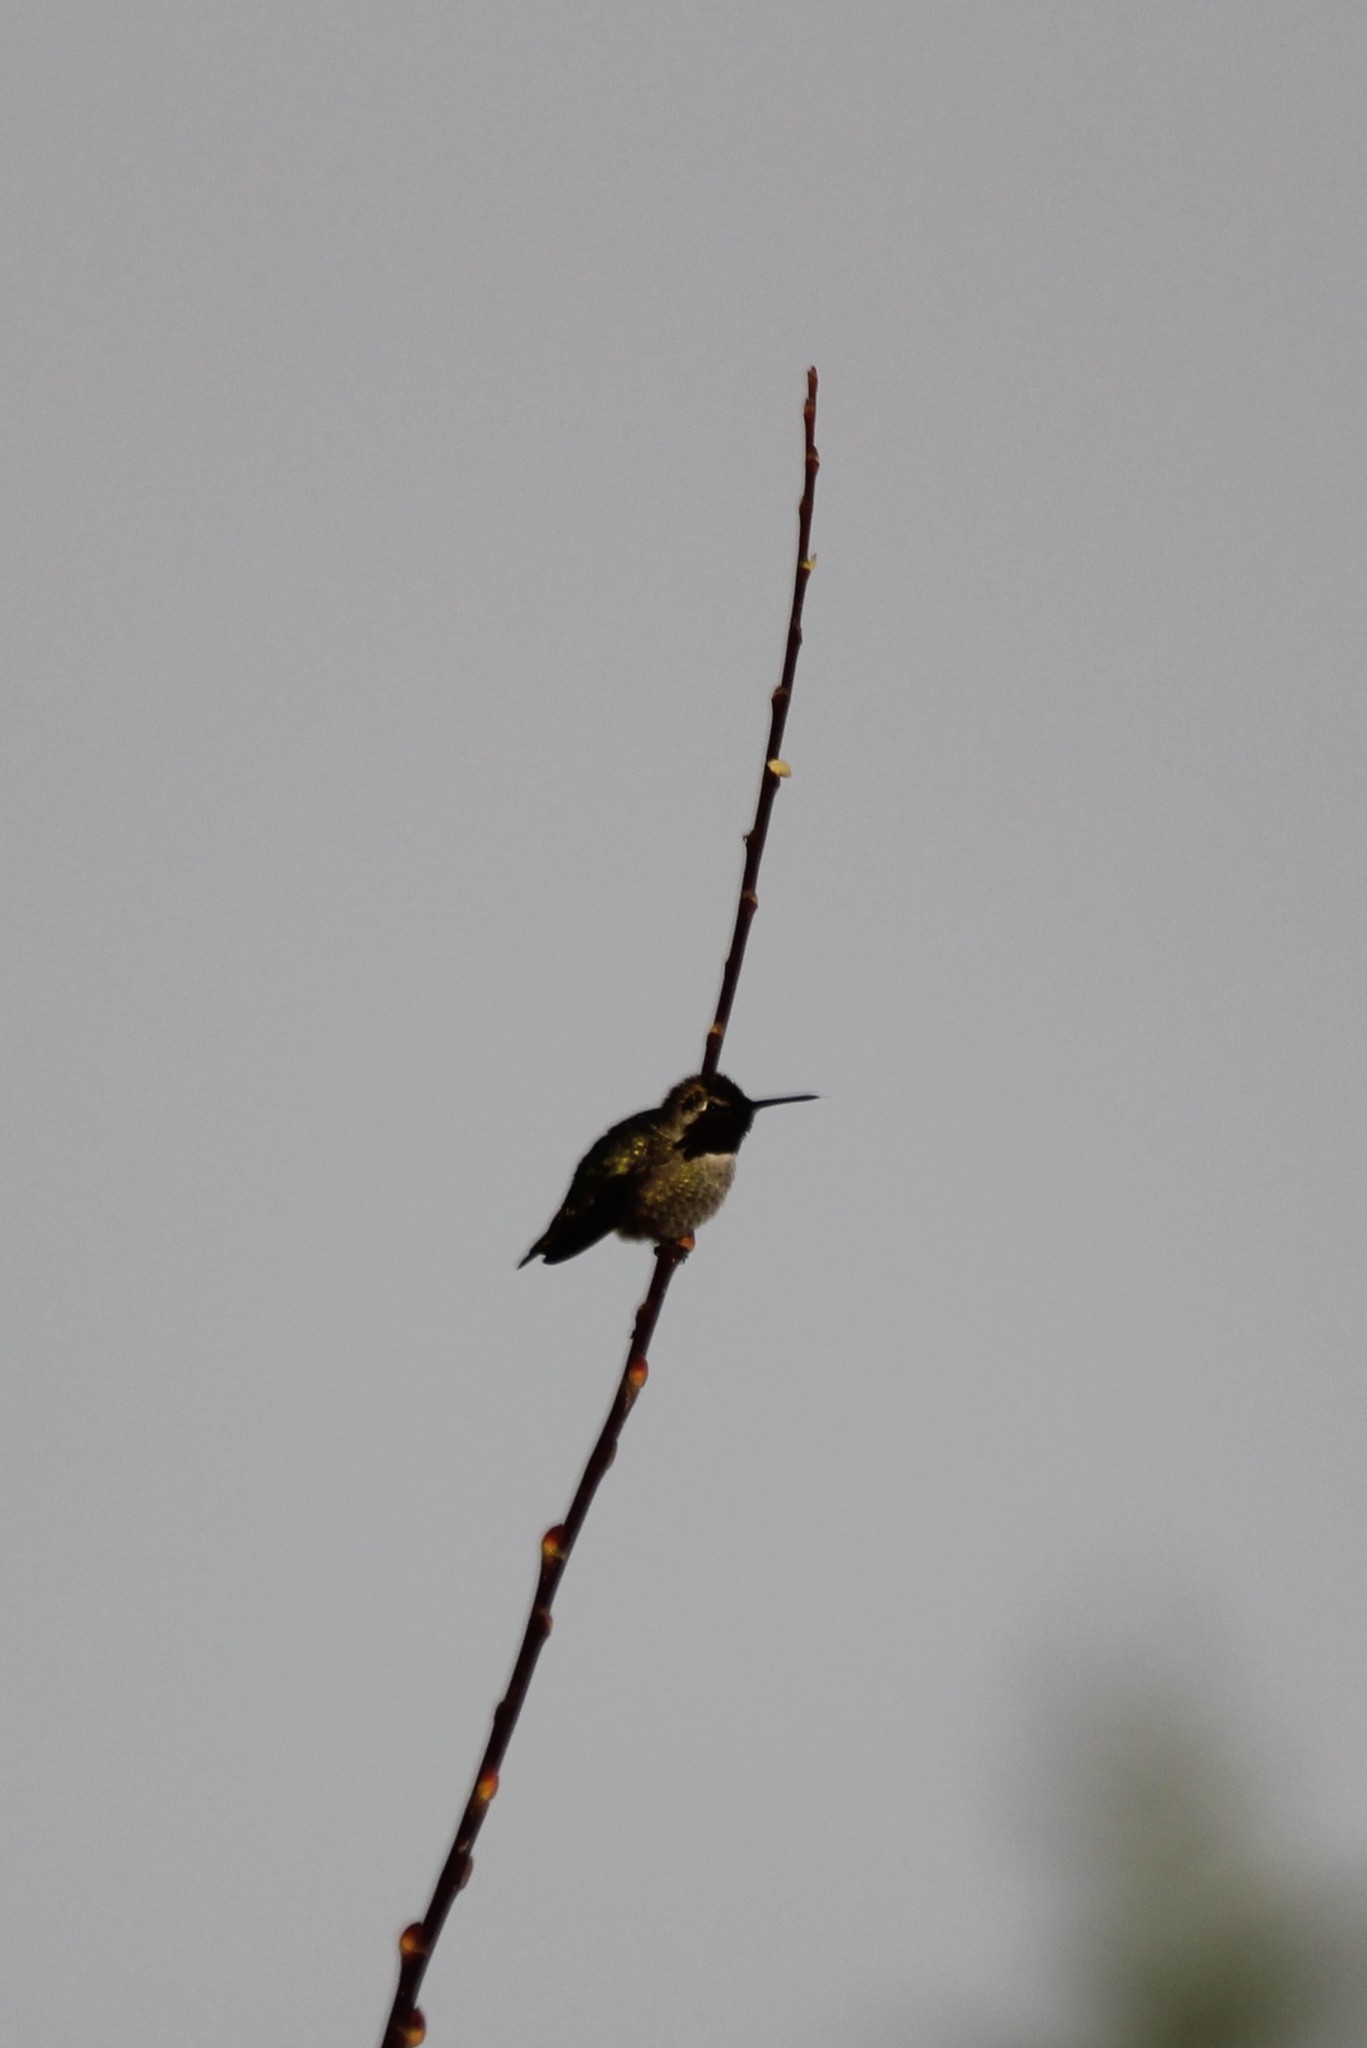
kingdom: Animalia
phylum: Chordata
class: Aves
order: Apodiformes
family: Trochilidae
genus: Calypte
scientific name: Calypte anna
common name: Anna's hummingbird
